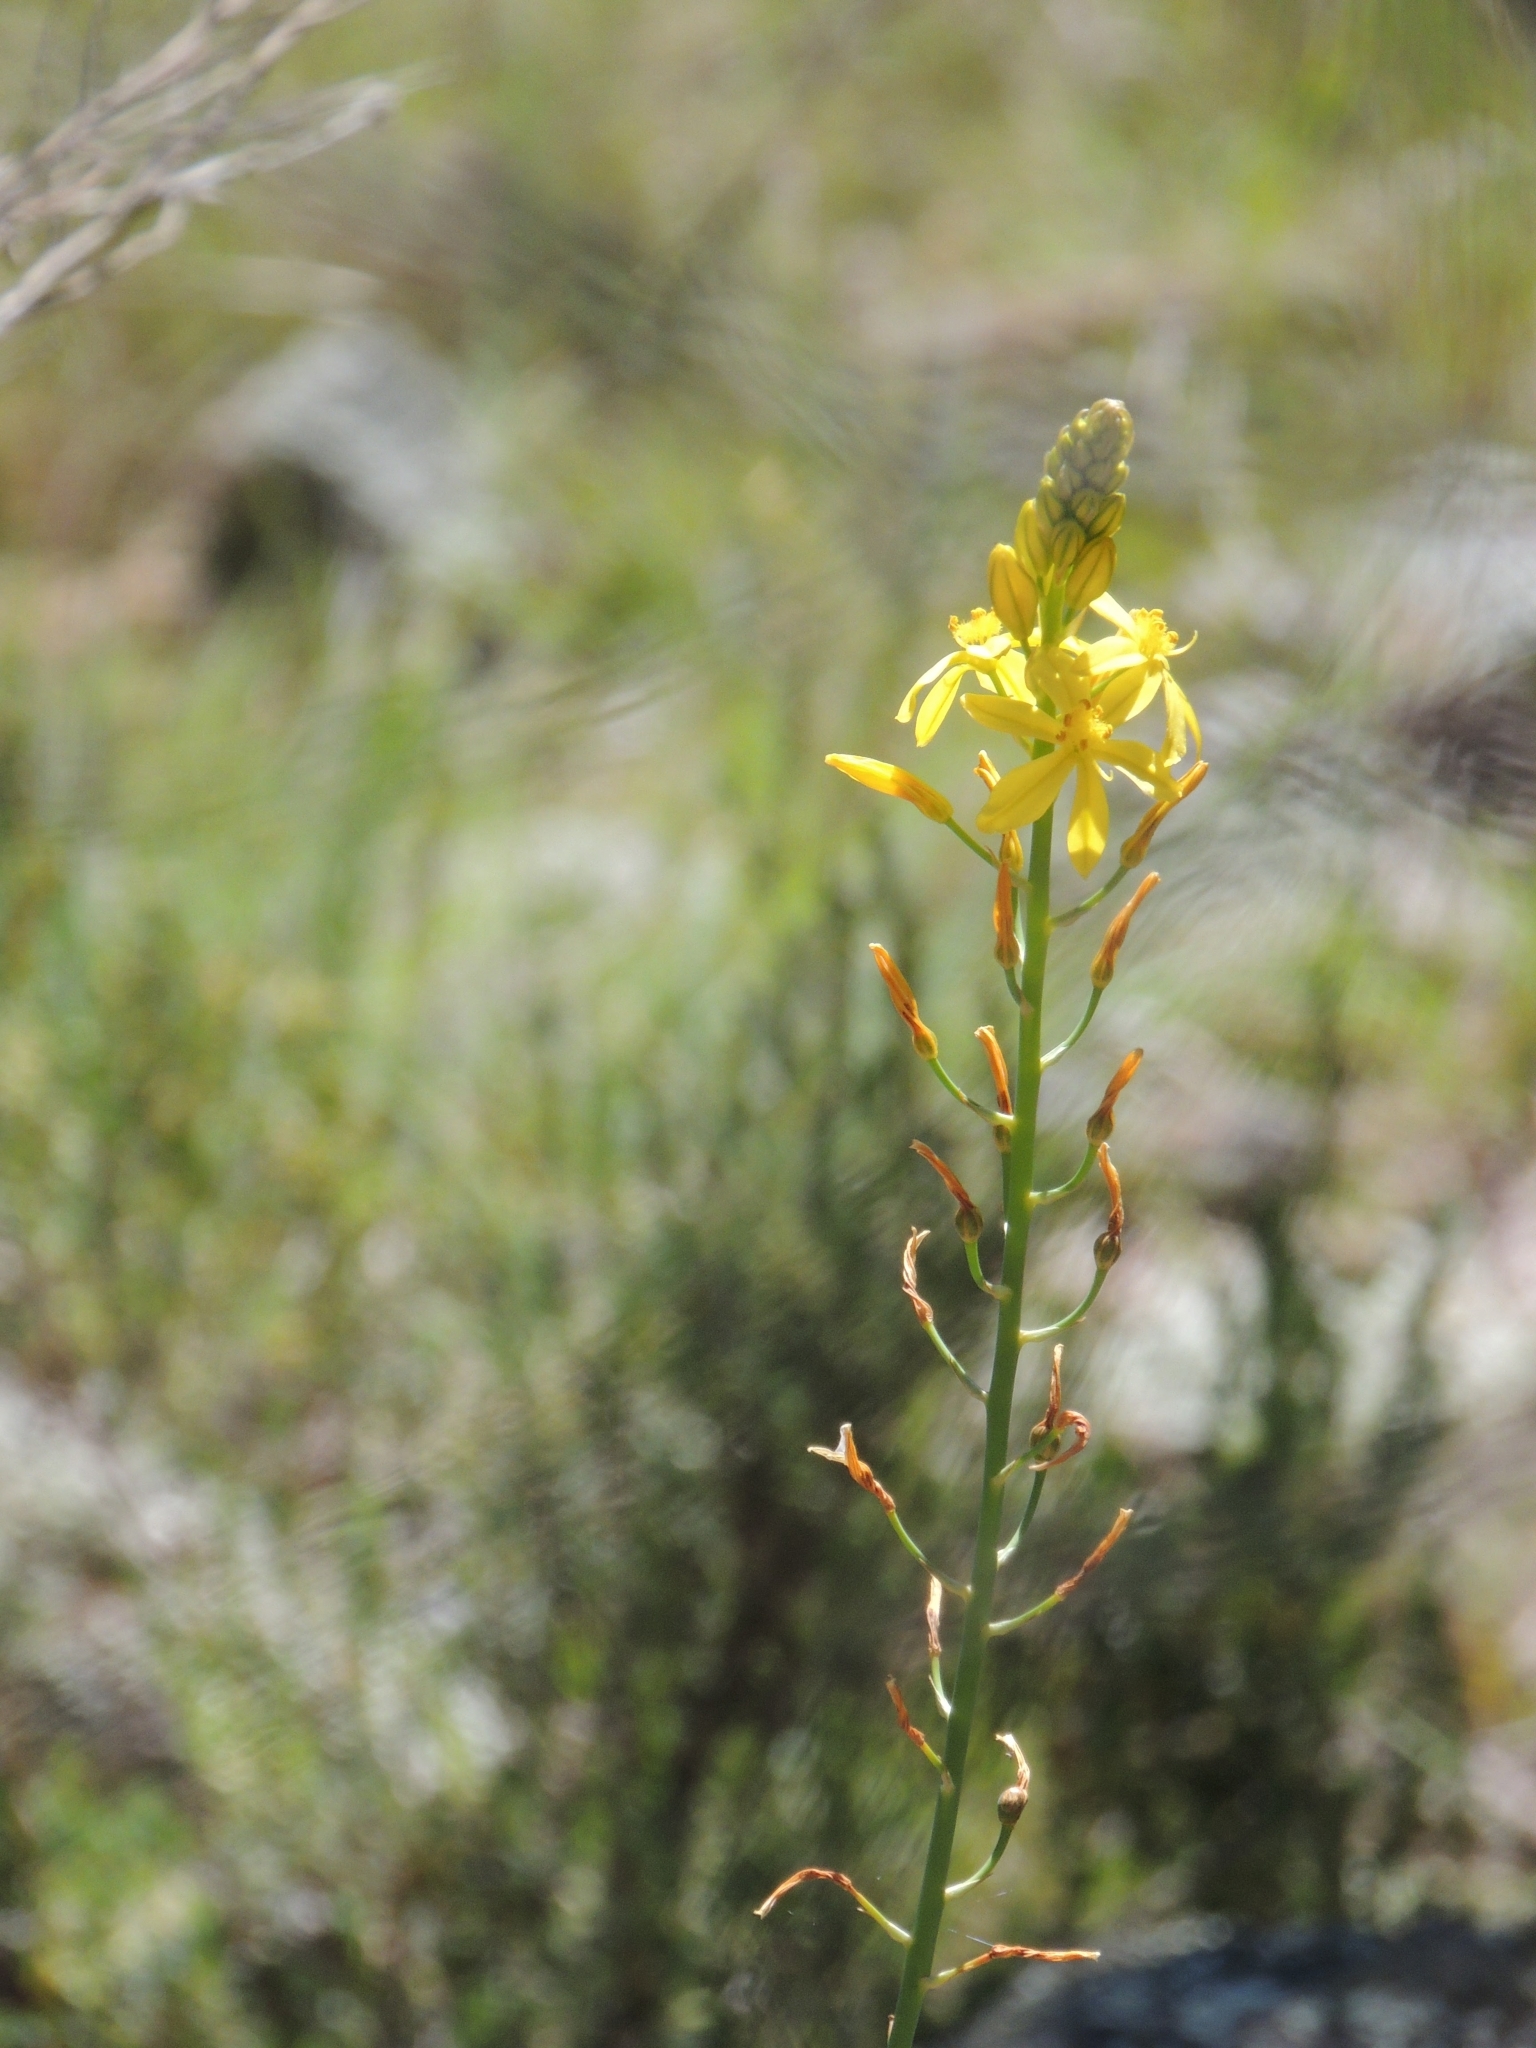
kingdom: Plantae
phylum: Tracheophyta
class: Liliopsida
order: Asparagales
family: Asphodelaceae
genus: Bulbine
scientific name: Bulbine bulbosa
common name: Golden-lily
